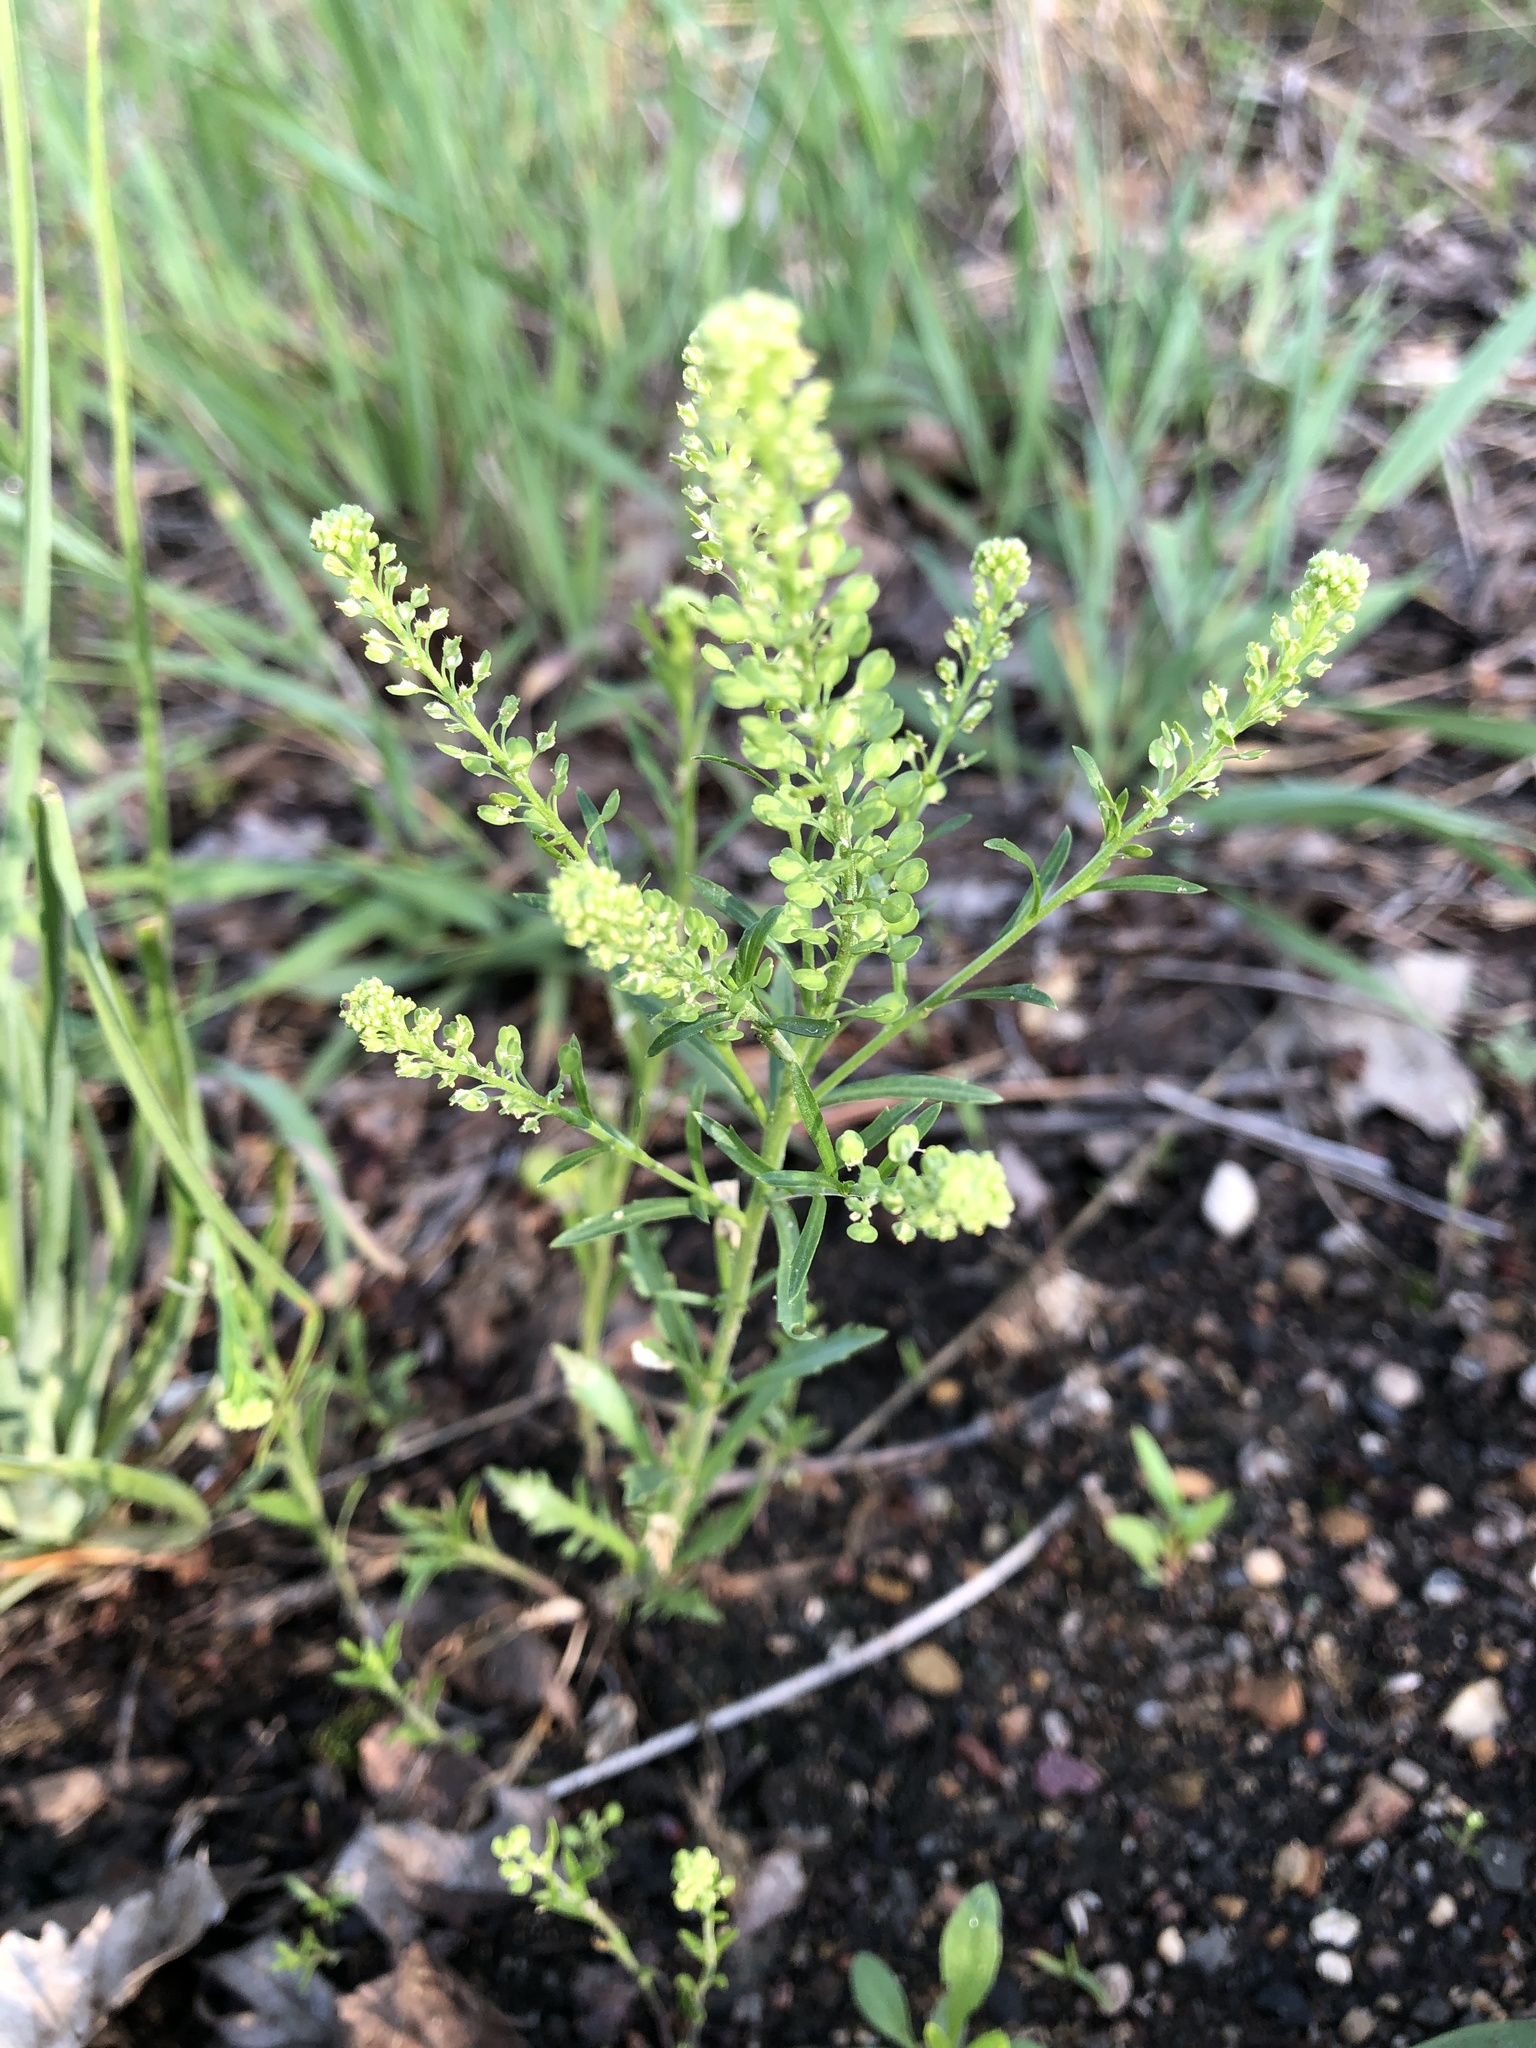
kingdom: Plantae
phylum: Tracheophyta
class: Magnoliopsida
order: Brassicales
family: Brassicaceae
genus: Lepidium
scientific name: Lepidium densiflorum
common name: Miner's pepperwort
